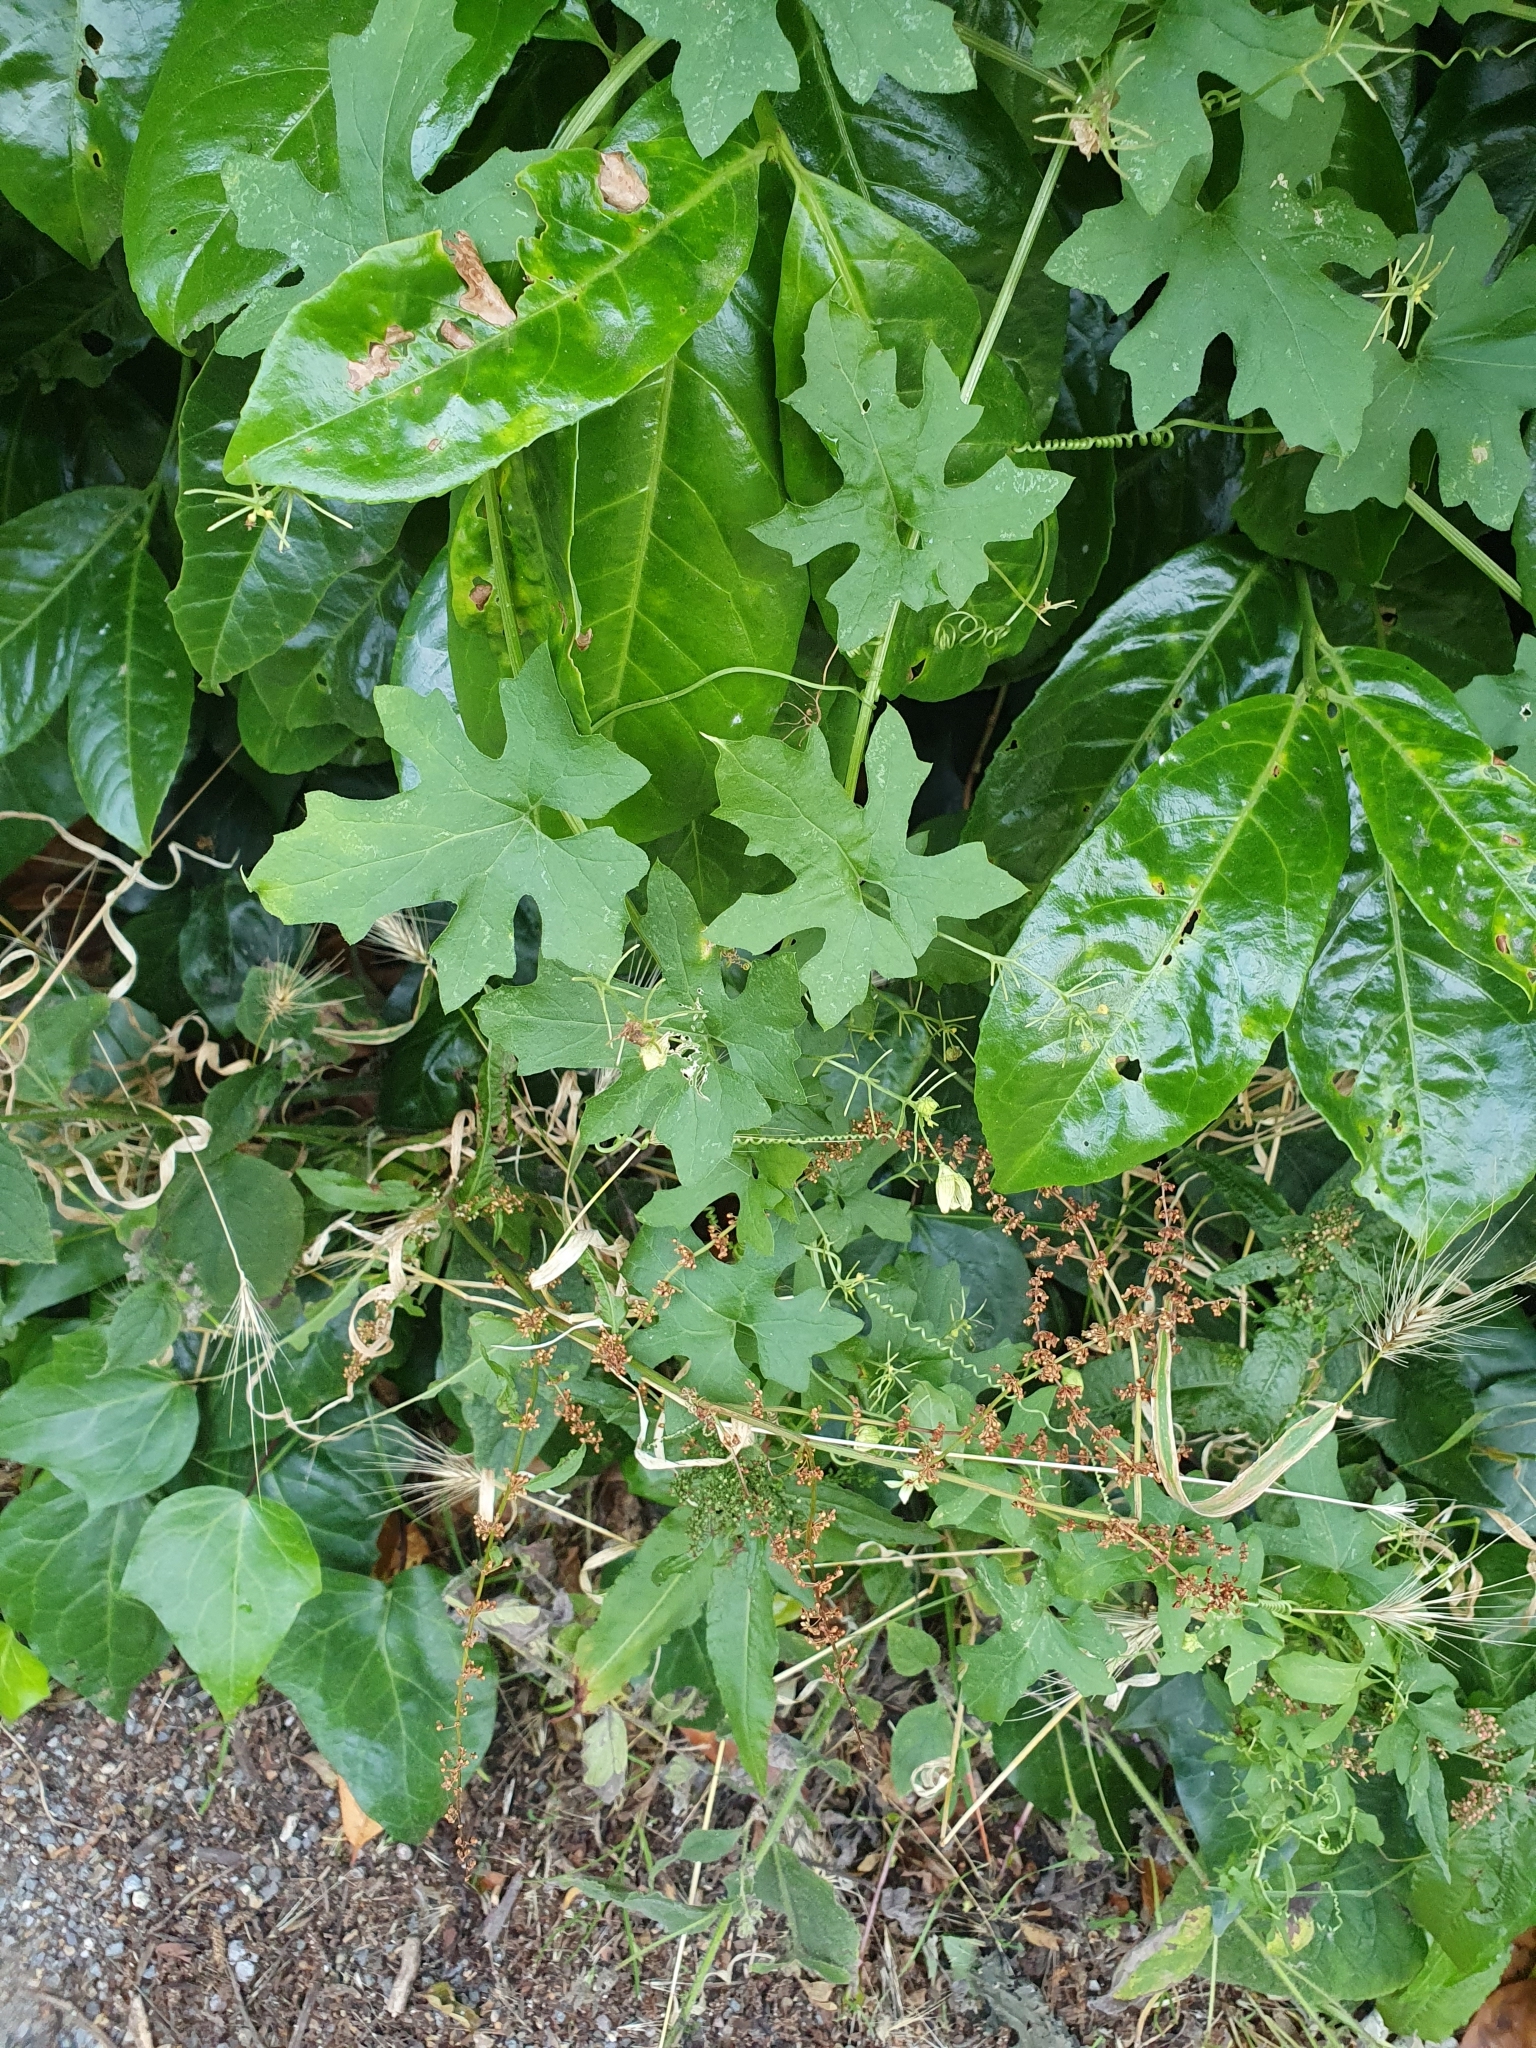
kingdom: Plantae
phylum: Tracheophyta
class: Magnoliopsida
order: Cucurbitales
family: Cucurbitaceae
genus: Bryonia
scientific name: Bryonia cretica
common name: Cretan bryony
